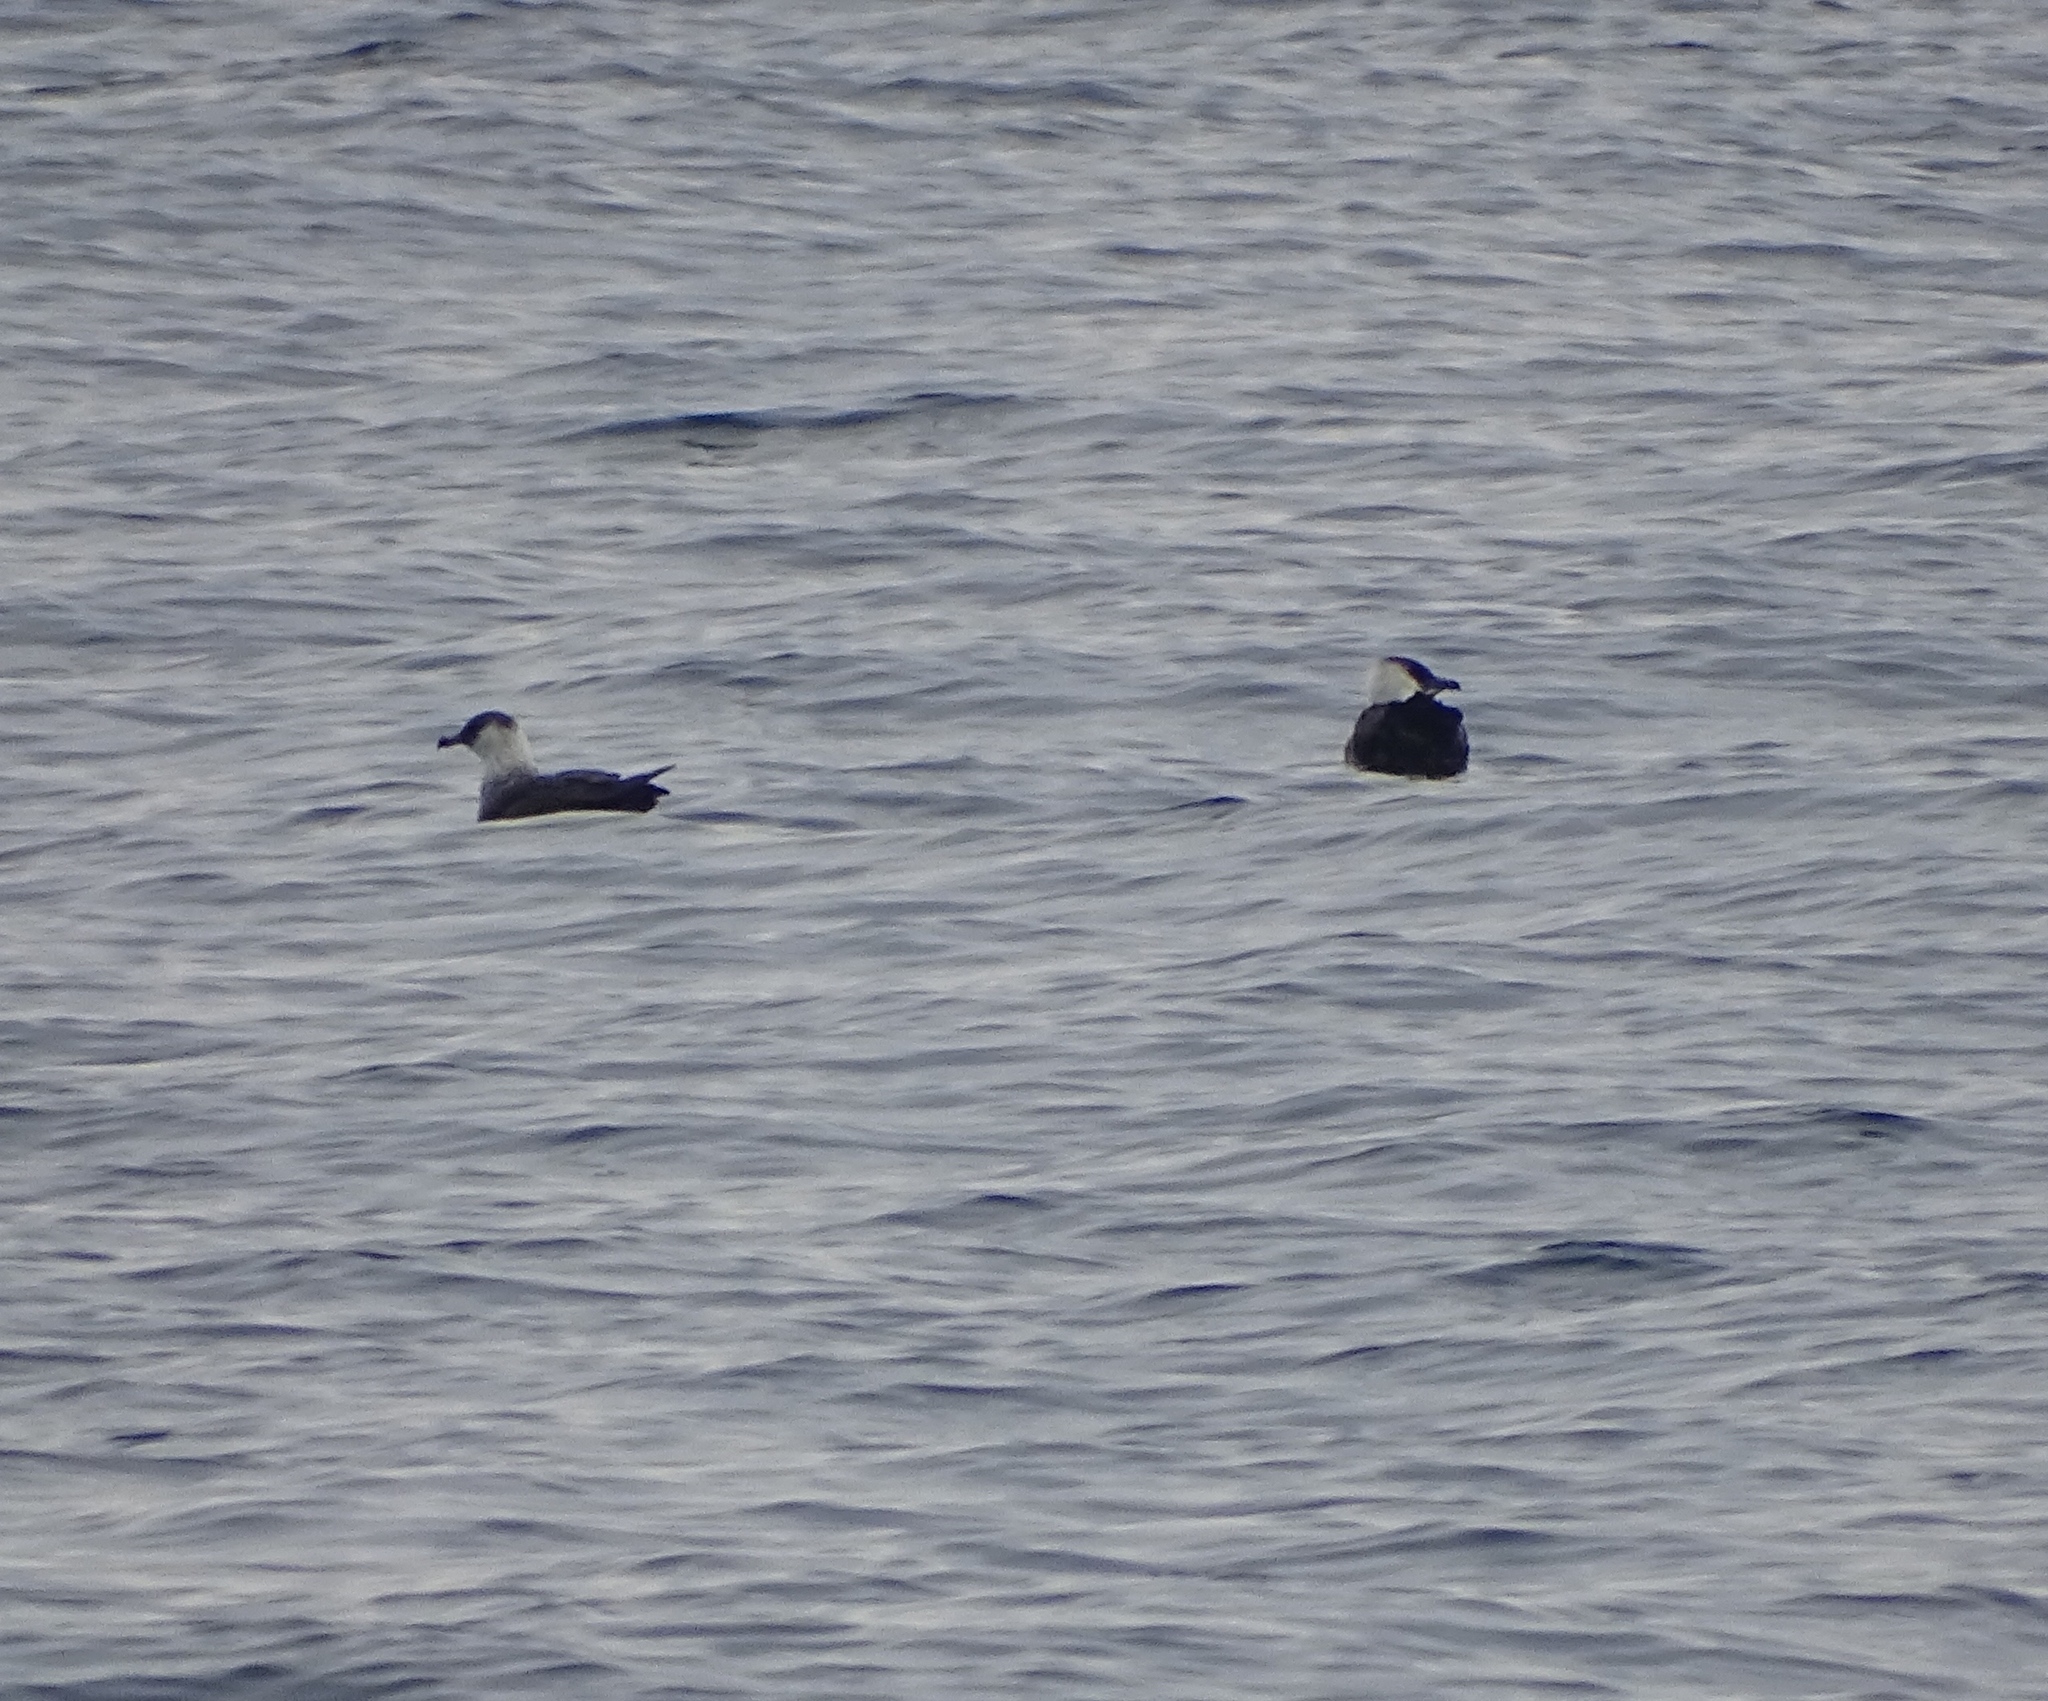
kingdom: Animalia
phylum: Chordata
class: Aves
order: Charadriiformes
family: Stercorariidae
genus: Stercorarius
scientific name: Stercorarius pomarinus
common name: Pomarine jaeger
